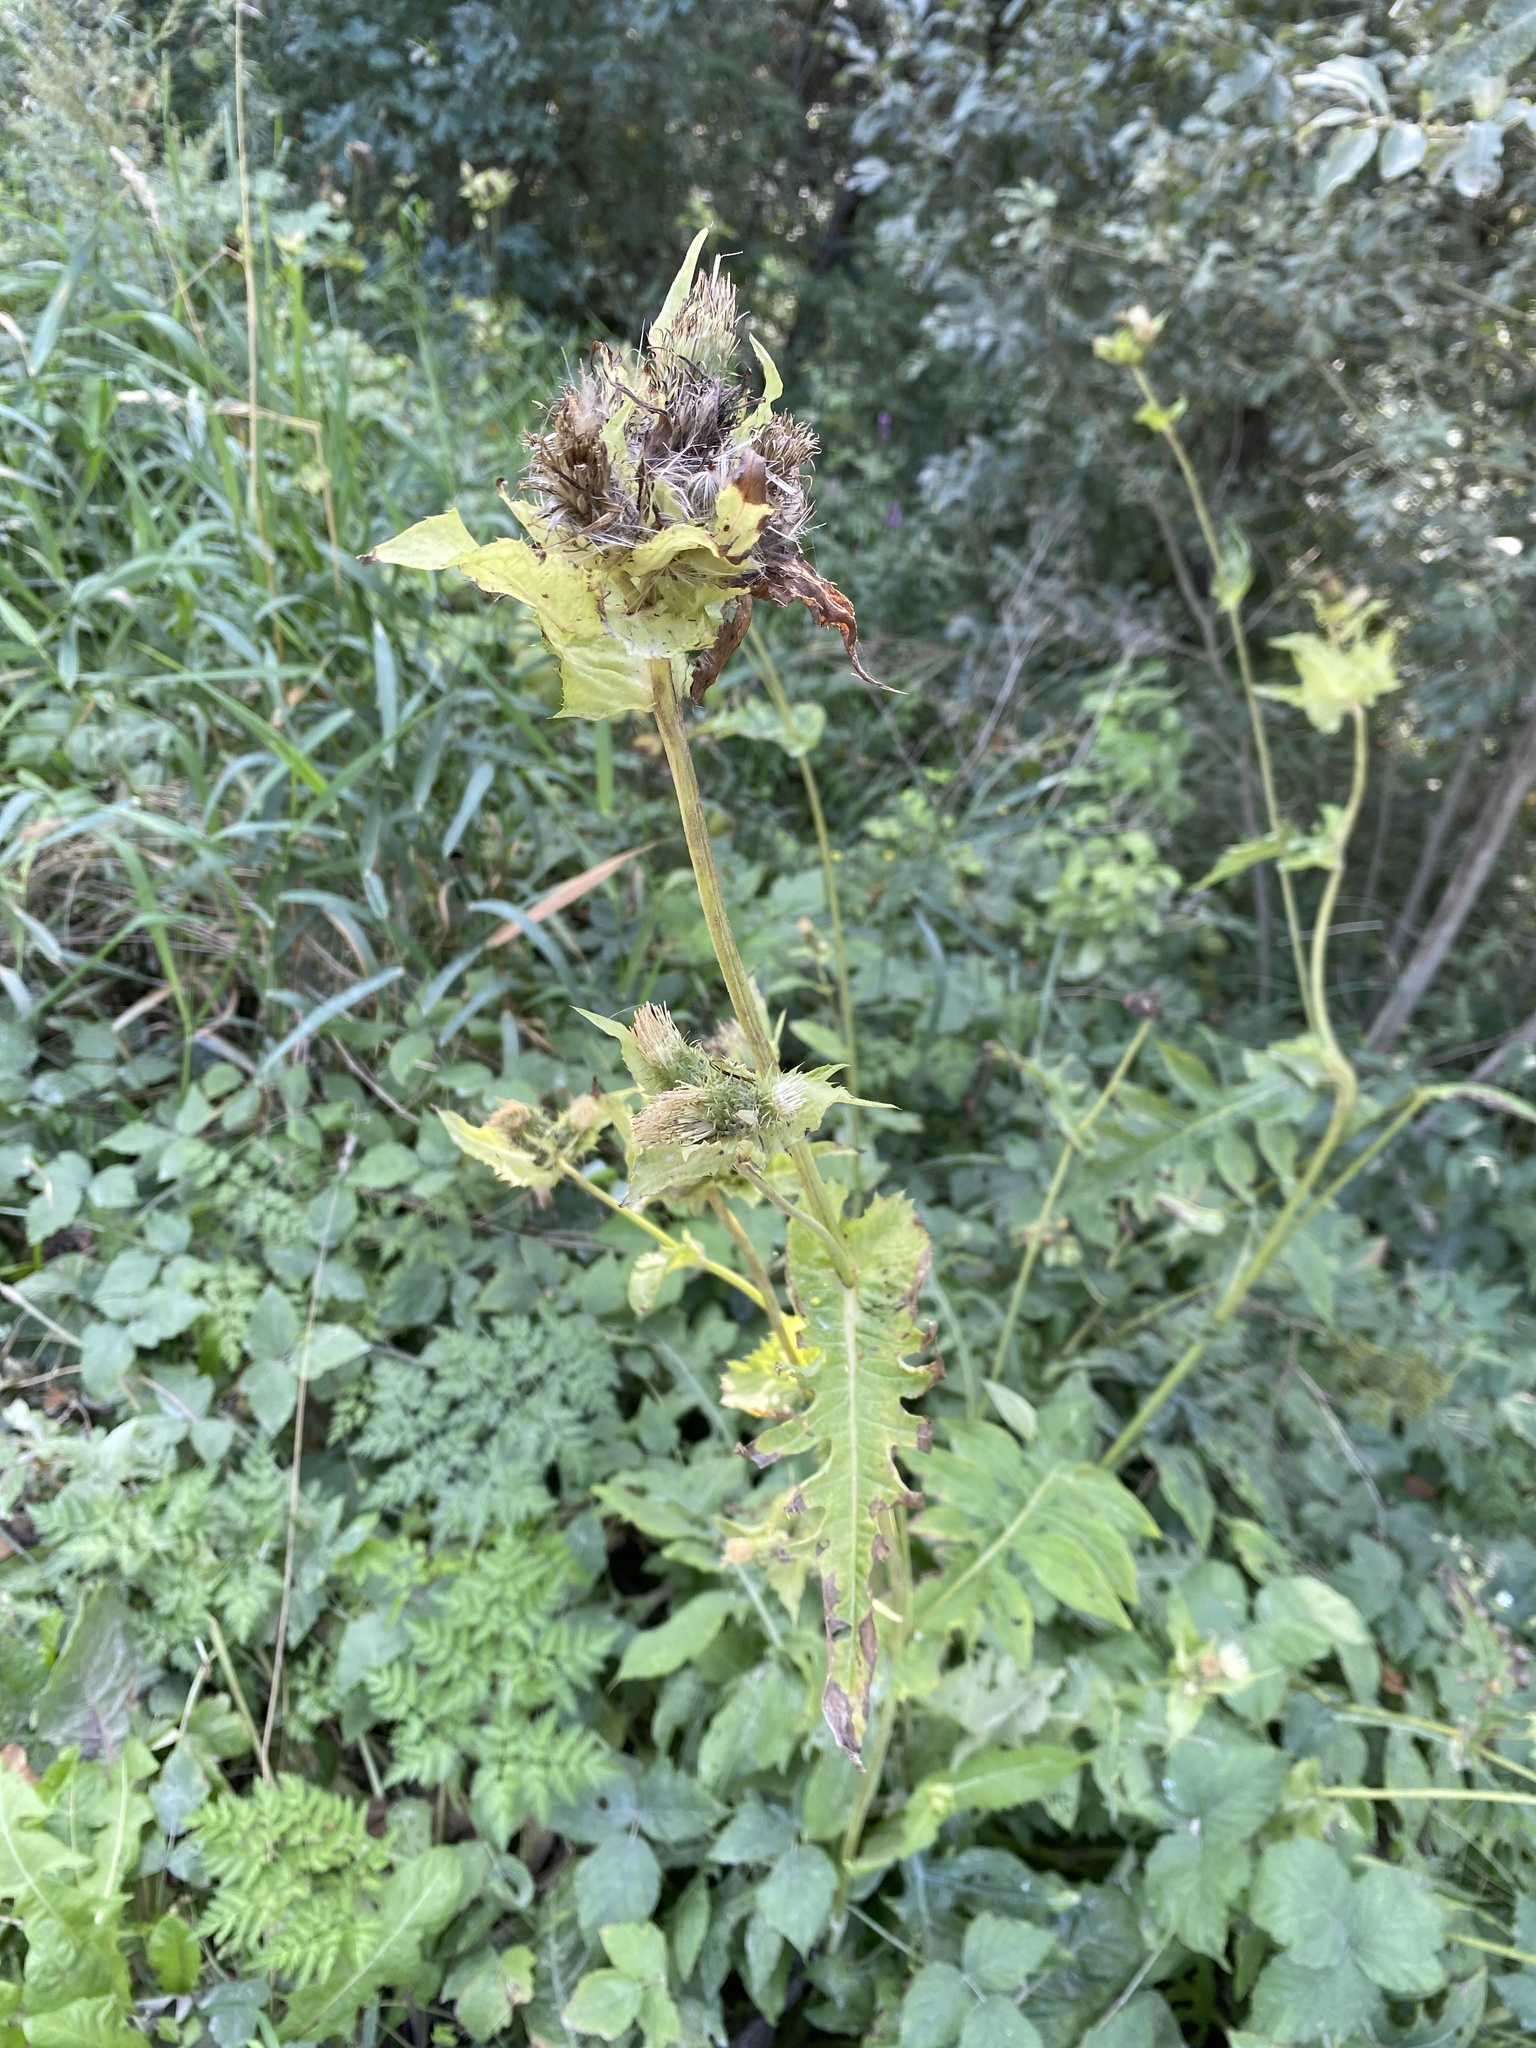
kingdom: Plantae
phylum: Tracheophyta
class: Magnoliopsida
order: Asterales
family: Asteraceae
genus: Cirsium
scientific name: Cirsium oleraceum
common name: Cabbage thistle
